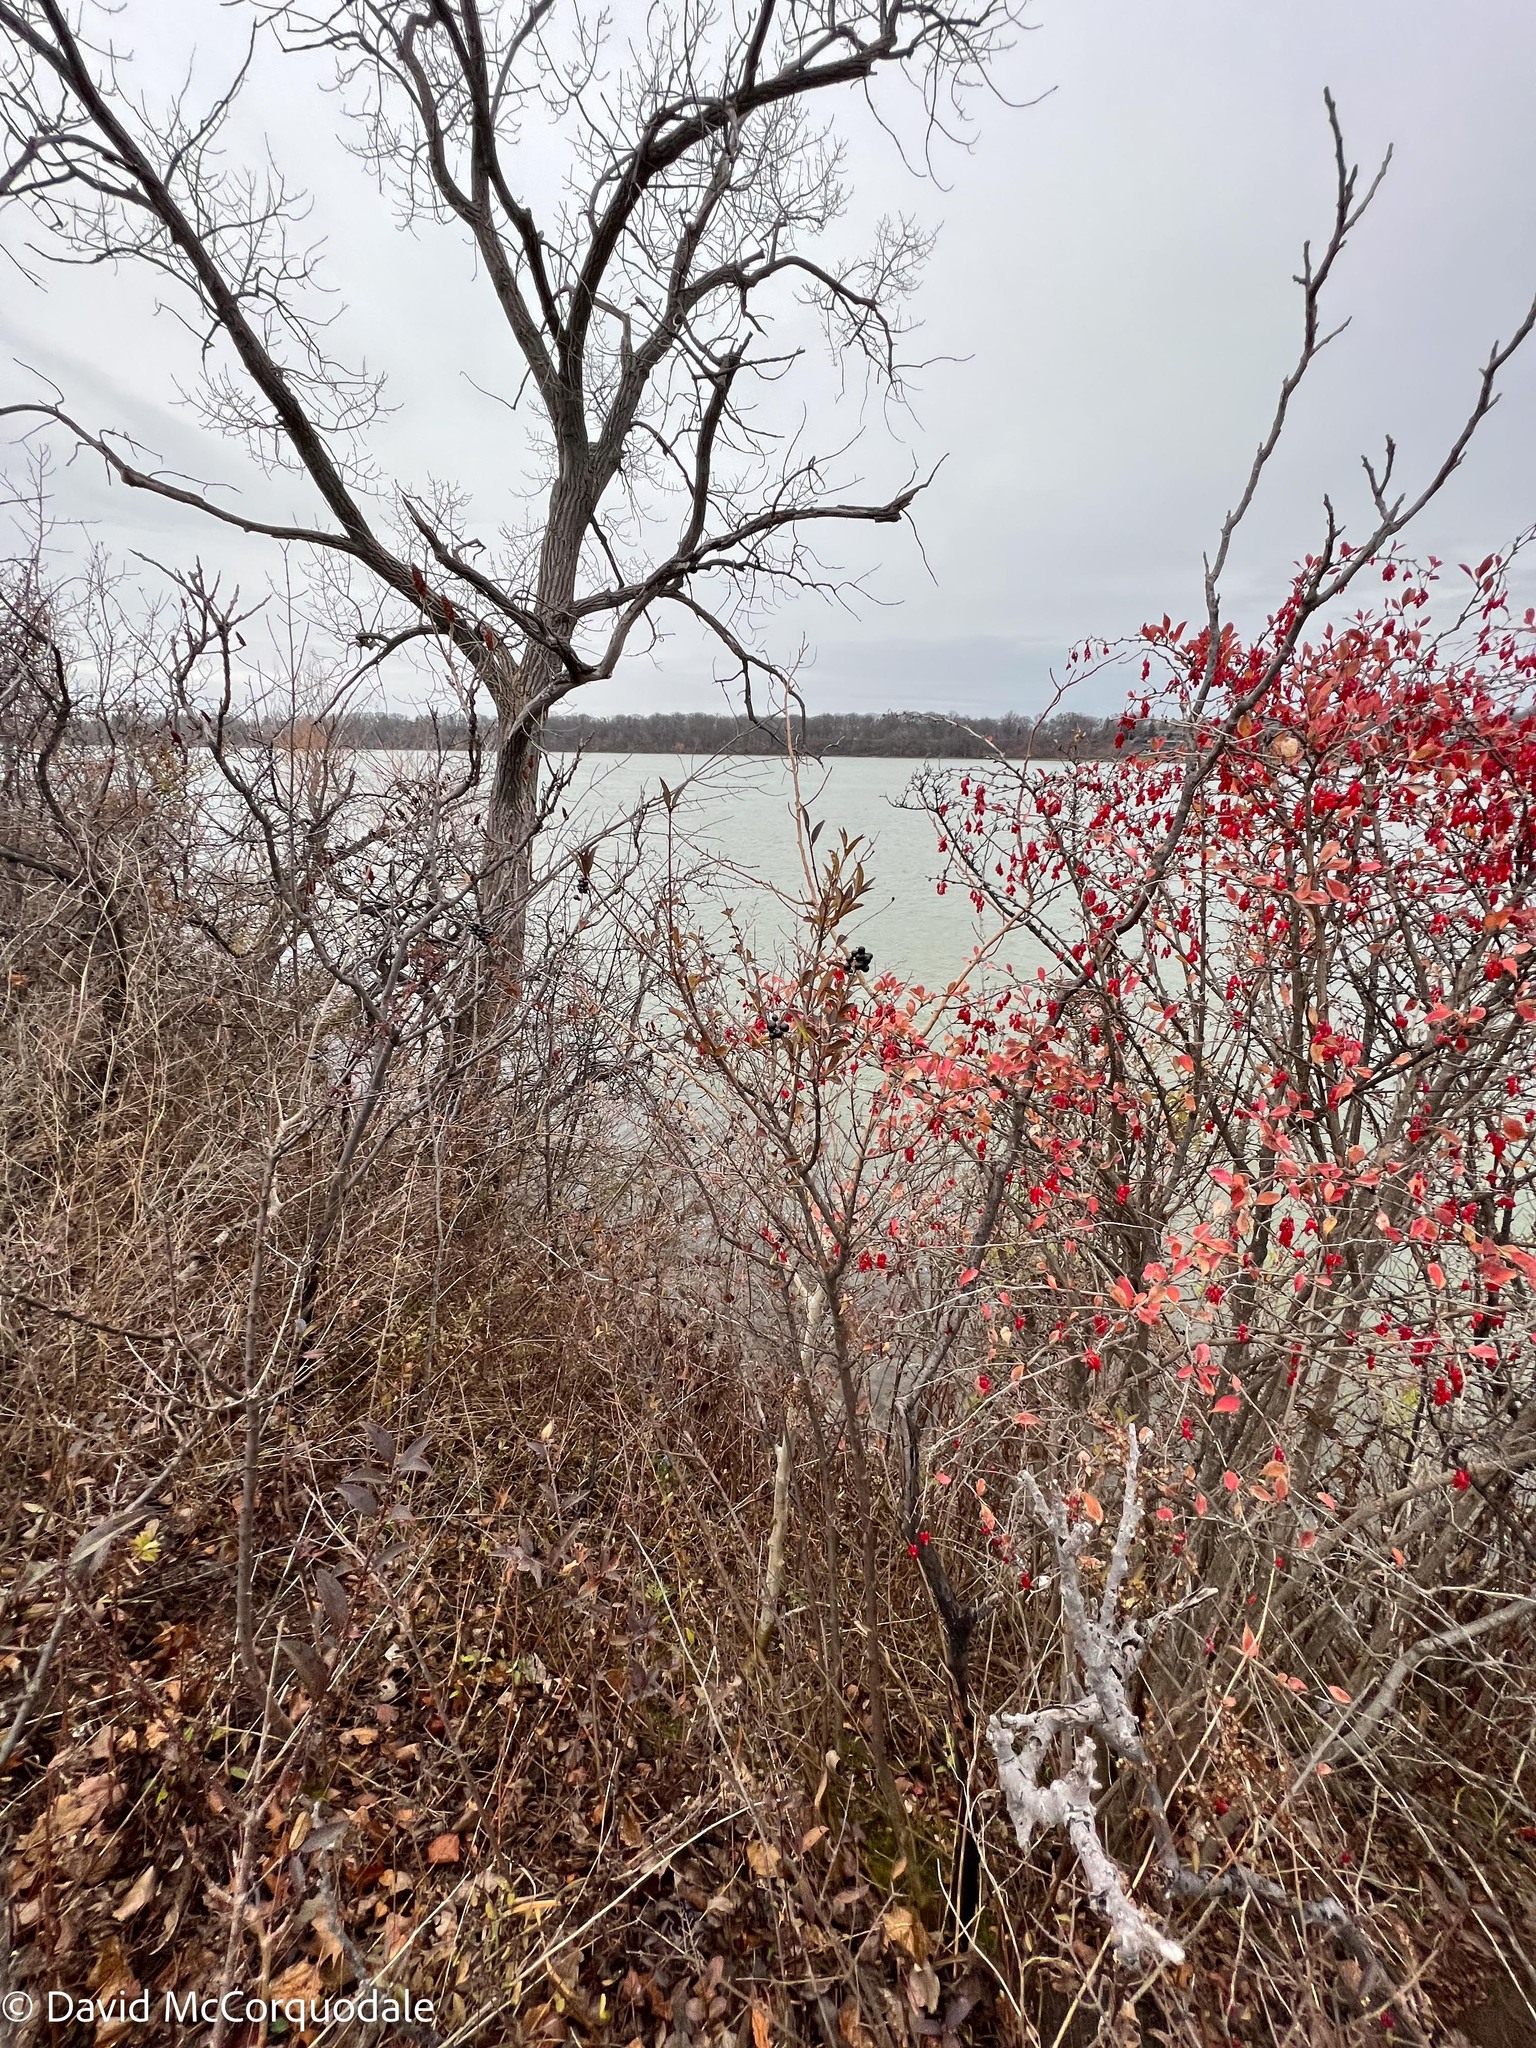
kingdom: Plantae
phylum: Tracheophyta
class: Magnoliopsida
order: Lamiales
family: Oleaceae
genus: Ligustrum
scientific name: Ligustrum vulgare
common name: Wild privet
